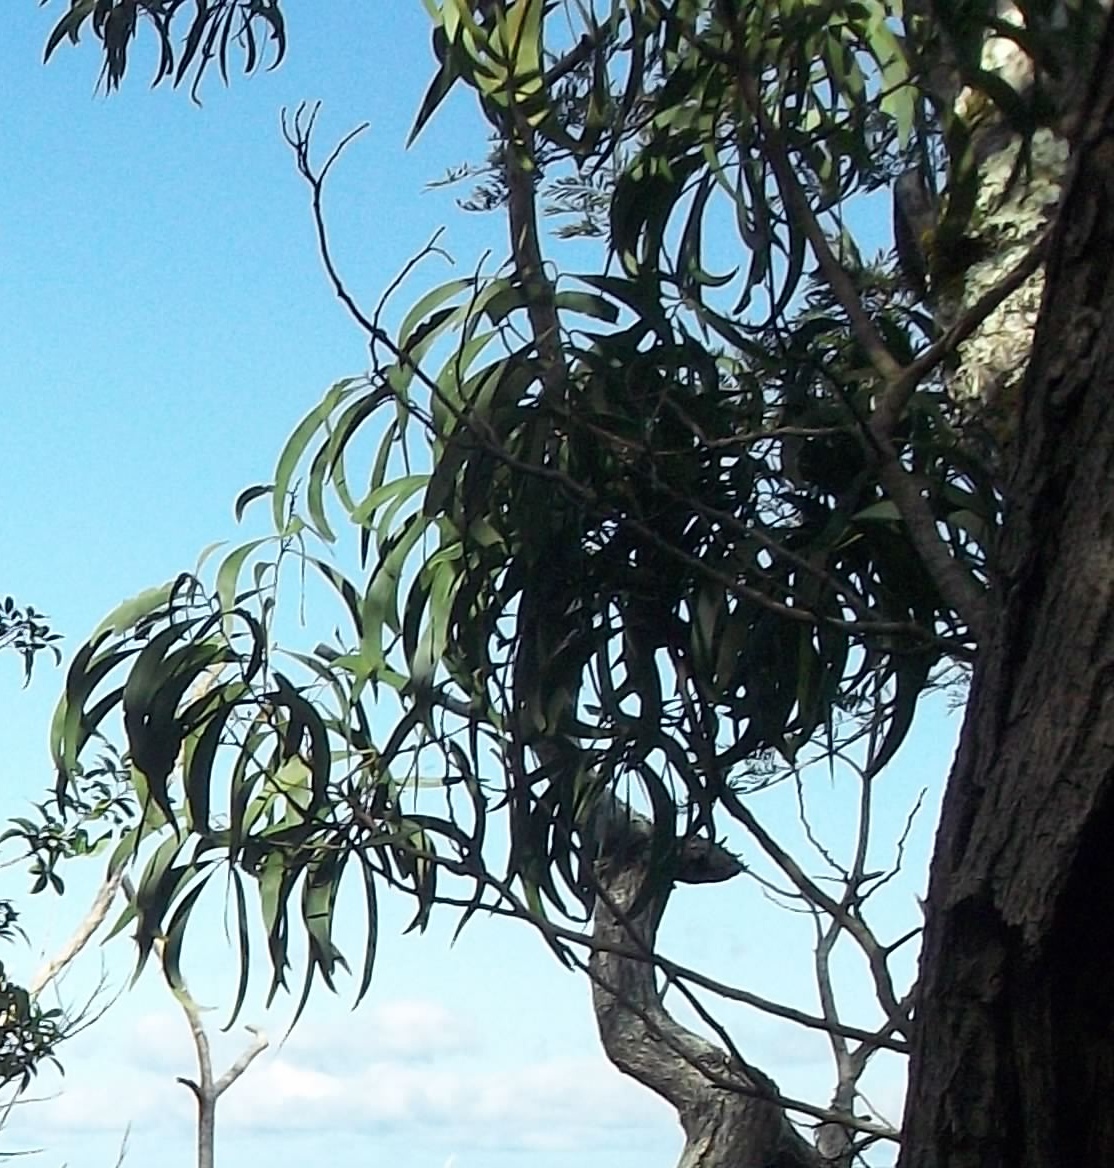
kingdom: Plantae
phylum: Tracheophyta
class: Magnoliopsida
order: Fabales
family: Fabaceae
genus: Acacia
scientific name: Acacia koa
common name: Gray koa
